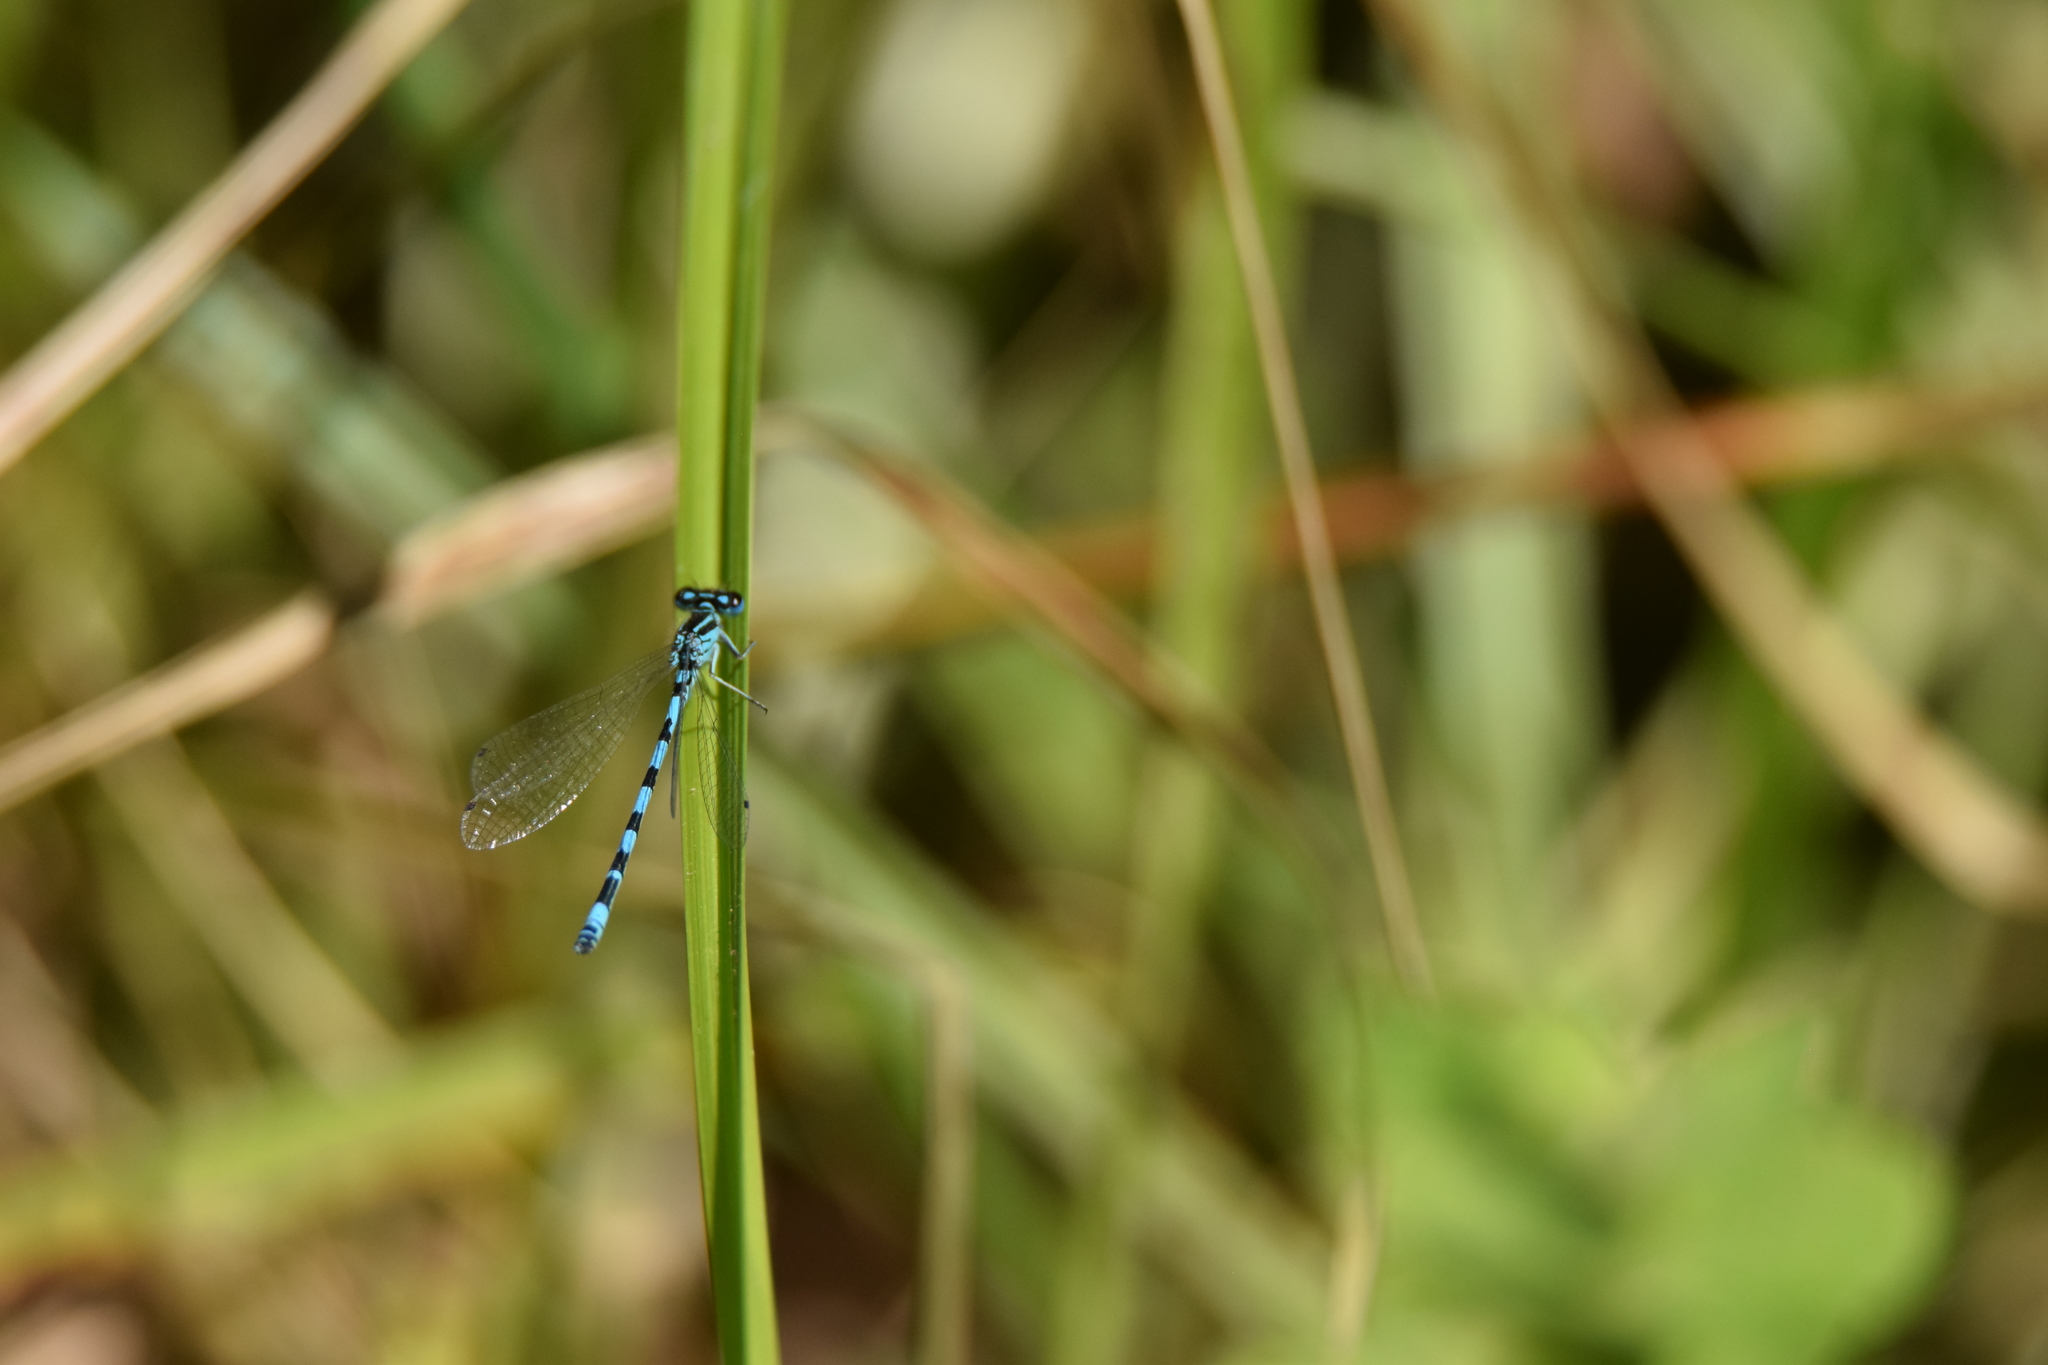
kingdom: Animalia
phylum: Arthropoda
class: Insecta
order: Odonata
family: Coenagrionidae
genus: Coenagrion
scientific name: Coenagrion mercuriale
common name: Southern damselfly
